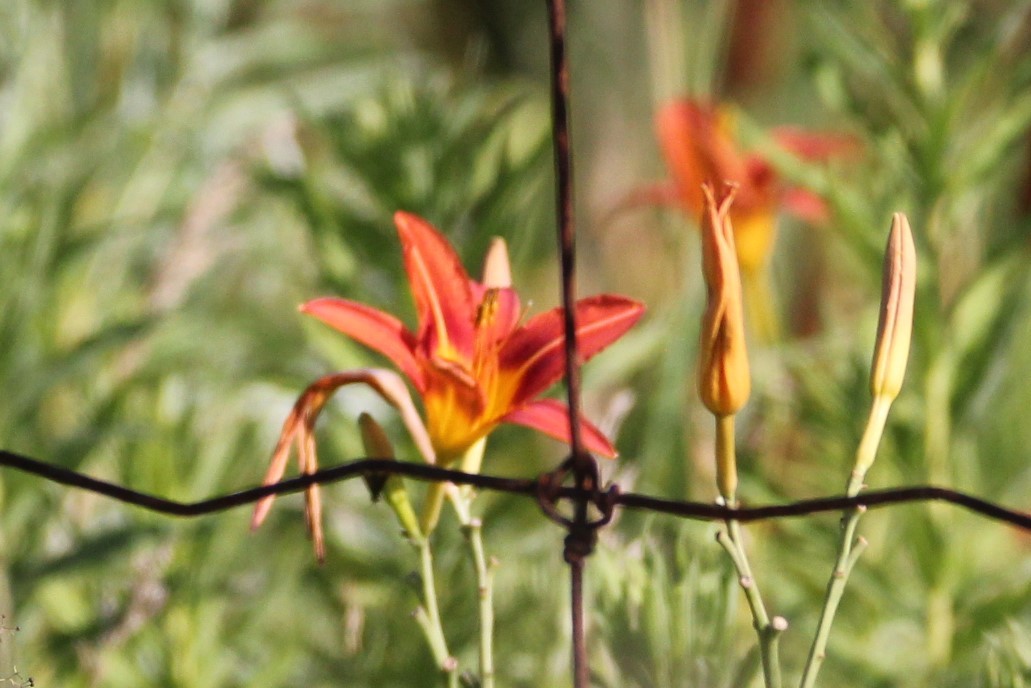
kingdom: Plantae
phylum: Tracheophyta
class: Liliopsida
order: Asparagales
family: Asphodelaceae
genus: Hemerocallis
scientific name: Hemerocallis fulva
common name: Orange day-lily
